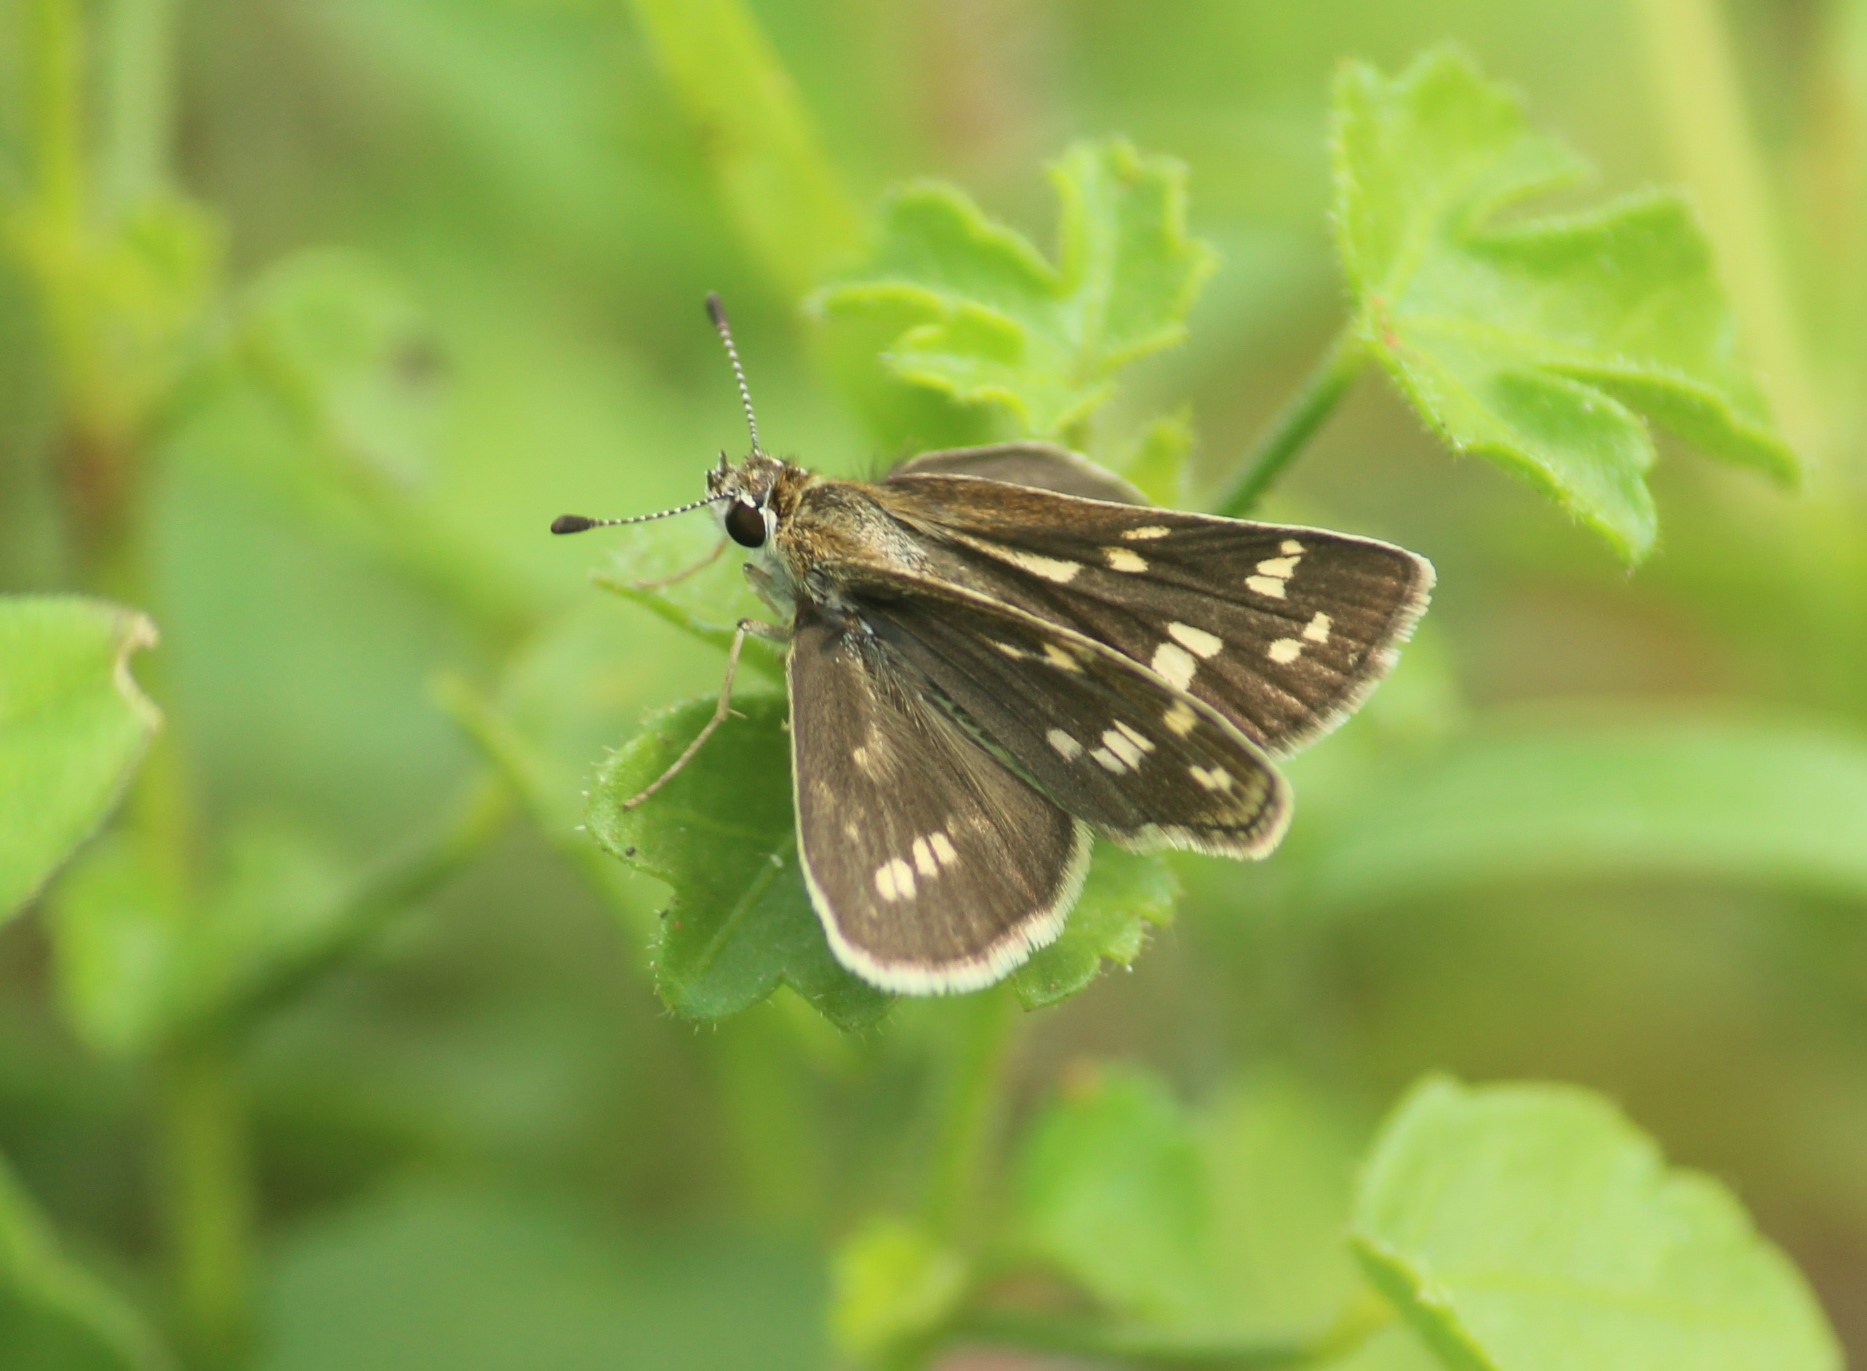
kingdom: Animalia
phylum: Arthropoda
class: Insecta
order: Lepidoptera
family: Hesperiidae
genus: Taractrocera
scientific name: Taractrocera maevius
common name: Common grass-dart
